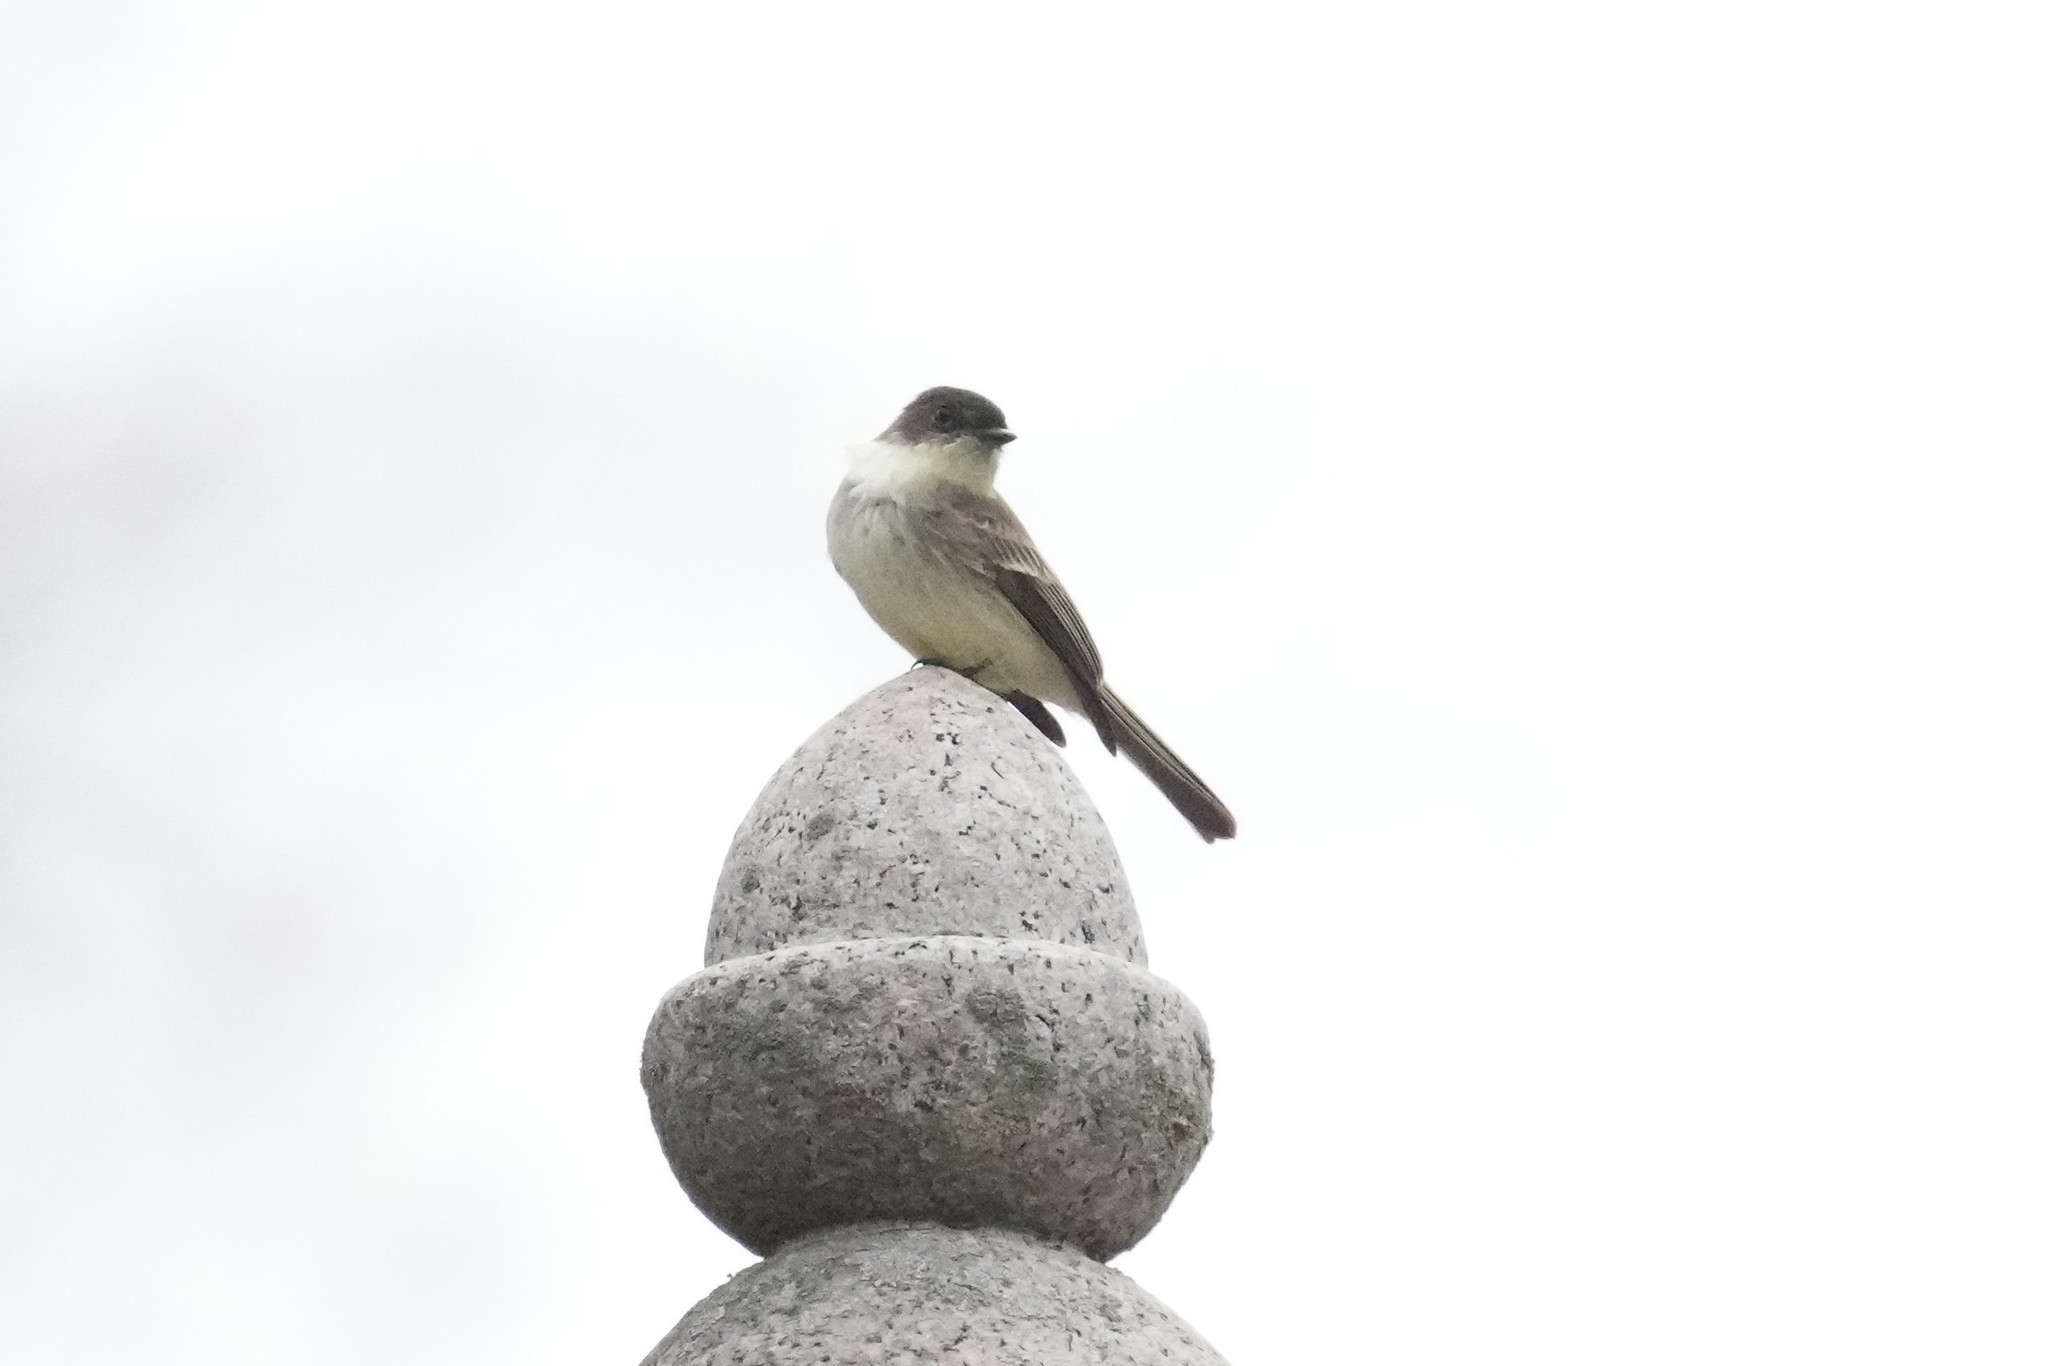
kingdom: Animalia
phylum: Chordata
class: Aves
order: Passeriformes
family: Tyrannidae
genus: Sayornis
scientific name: Sayornis phoebe
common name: Eastern phoebe
